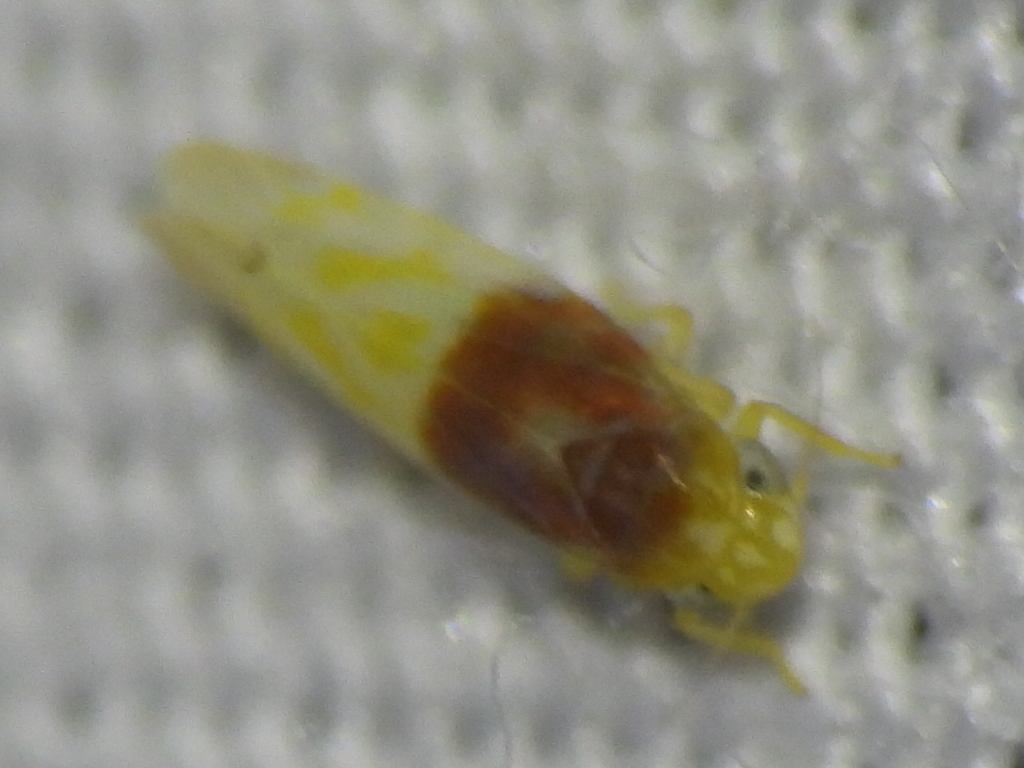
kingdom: Animalia
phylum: Arthropoda
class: Insecta
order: Hemiptera
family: Cicadellidae
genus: Eratoneura
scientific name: Eratoneura basilaris
